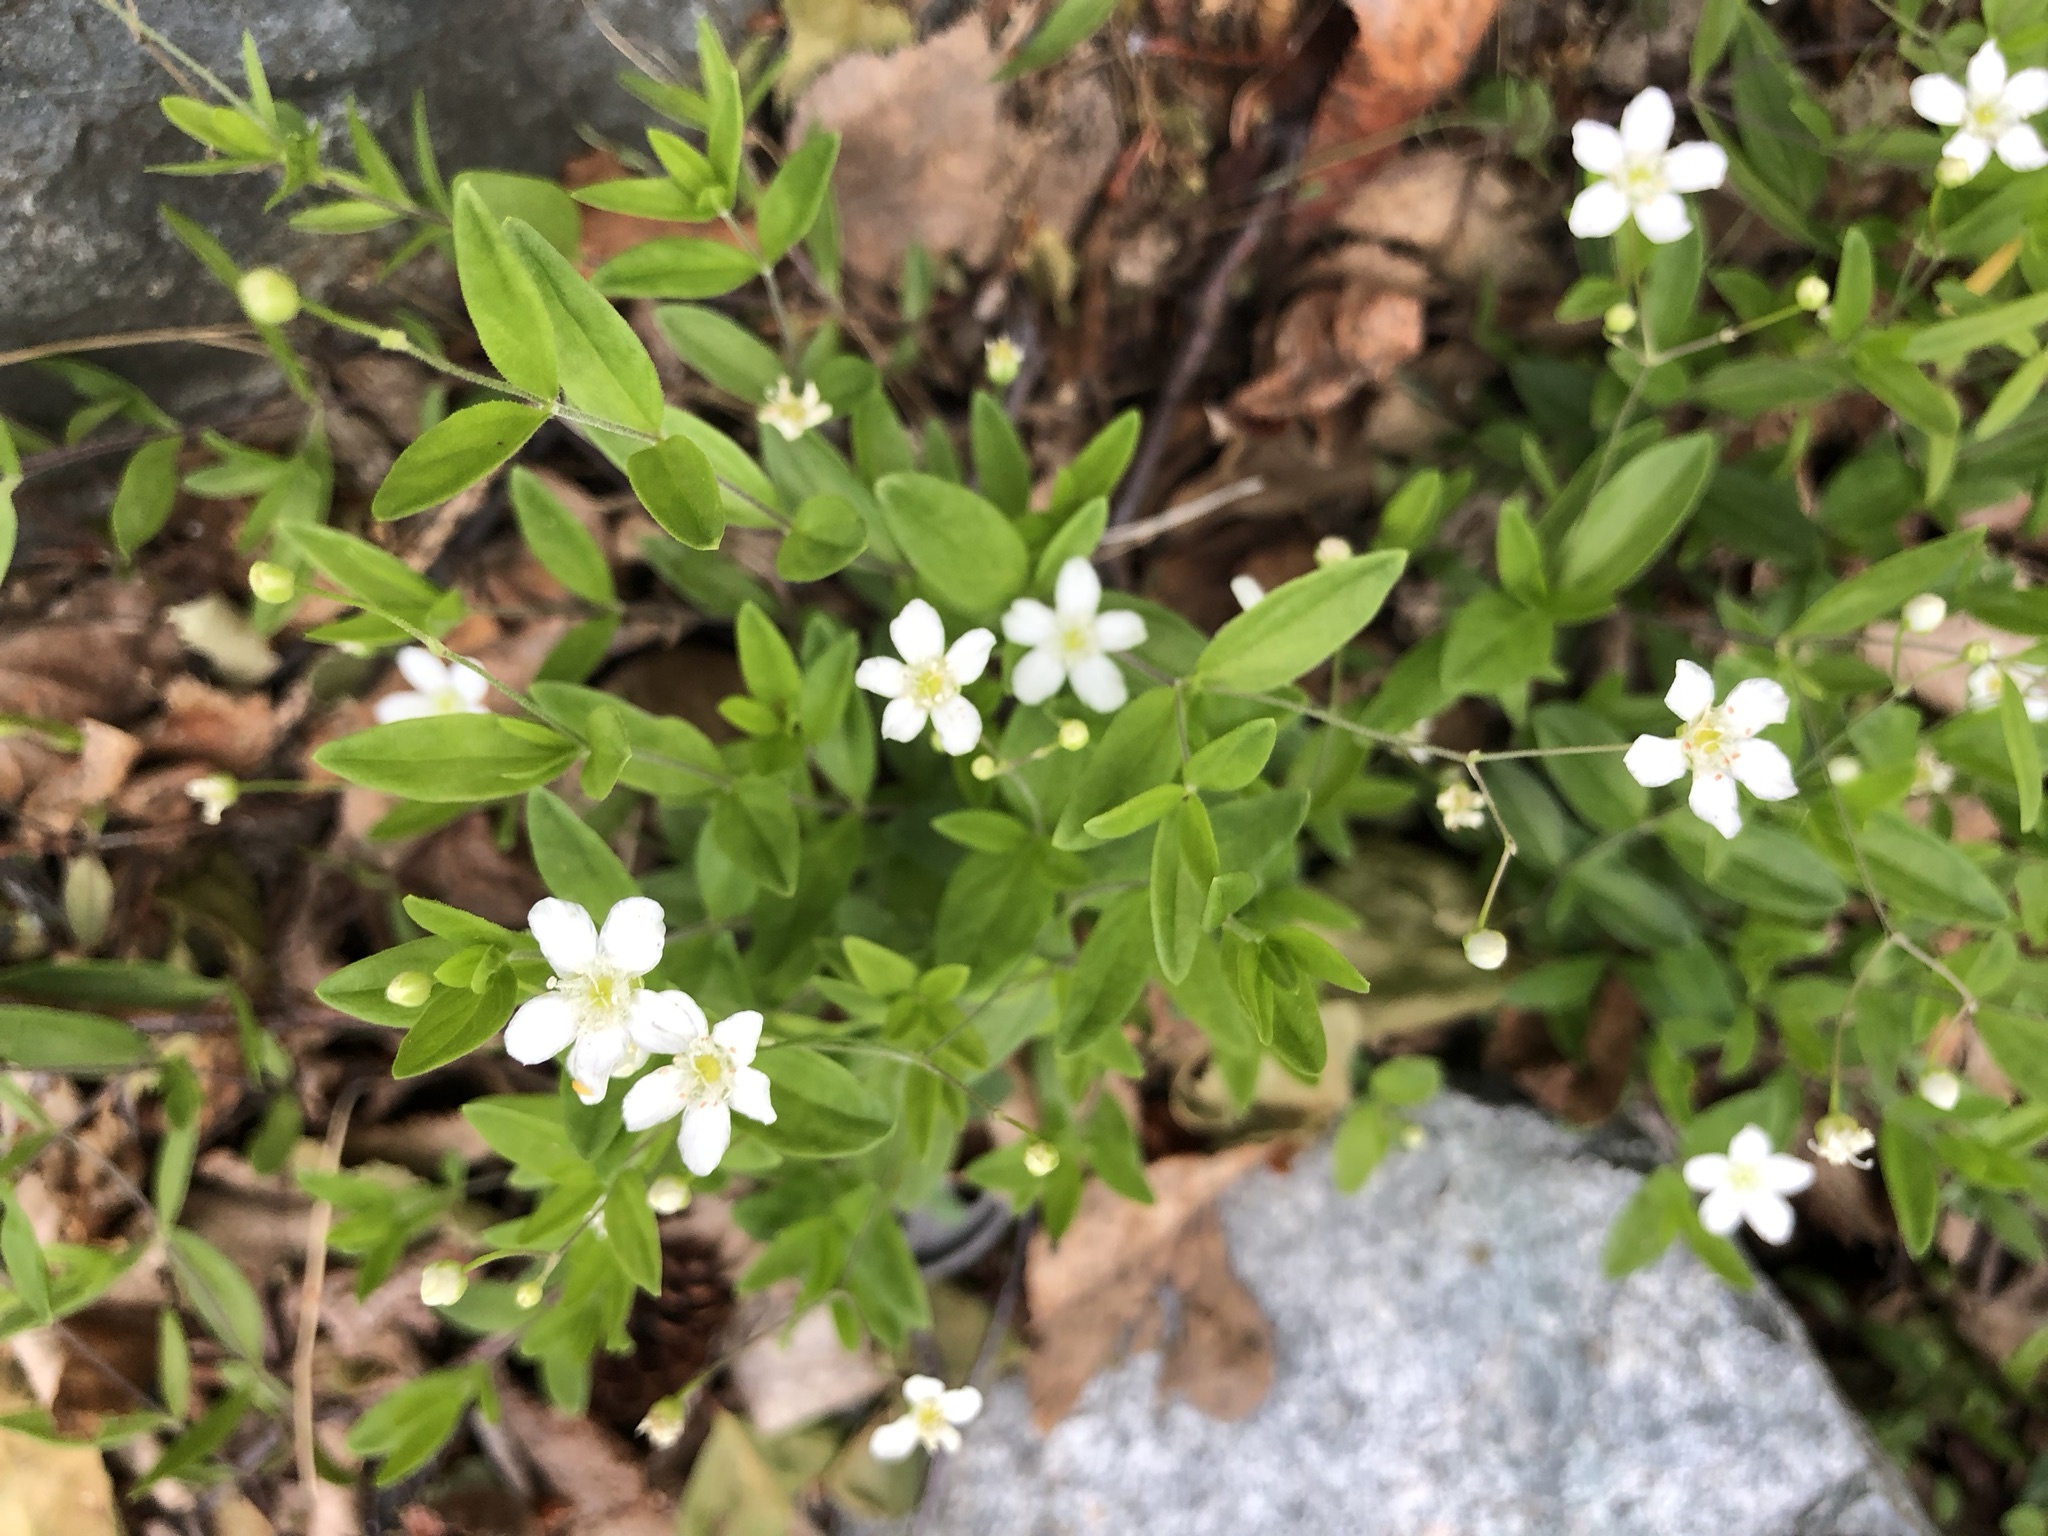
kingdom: Plantae
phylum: Tracheophyta
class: Magnoliopsida
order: Caryophyllales
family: Caryophyllaceae
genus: Moehringia
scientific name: Moehringia lateriflora
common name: Blunt-leaved sandwort
